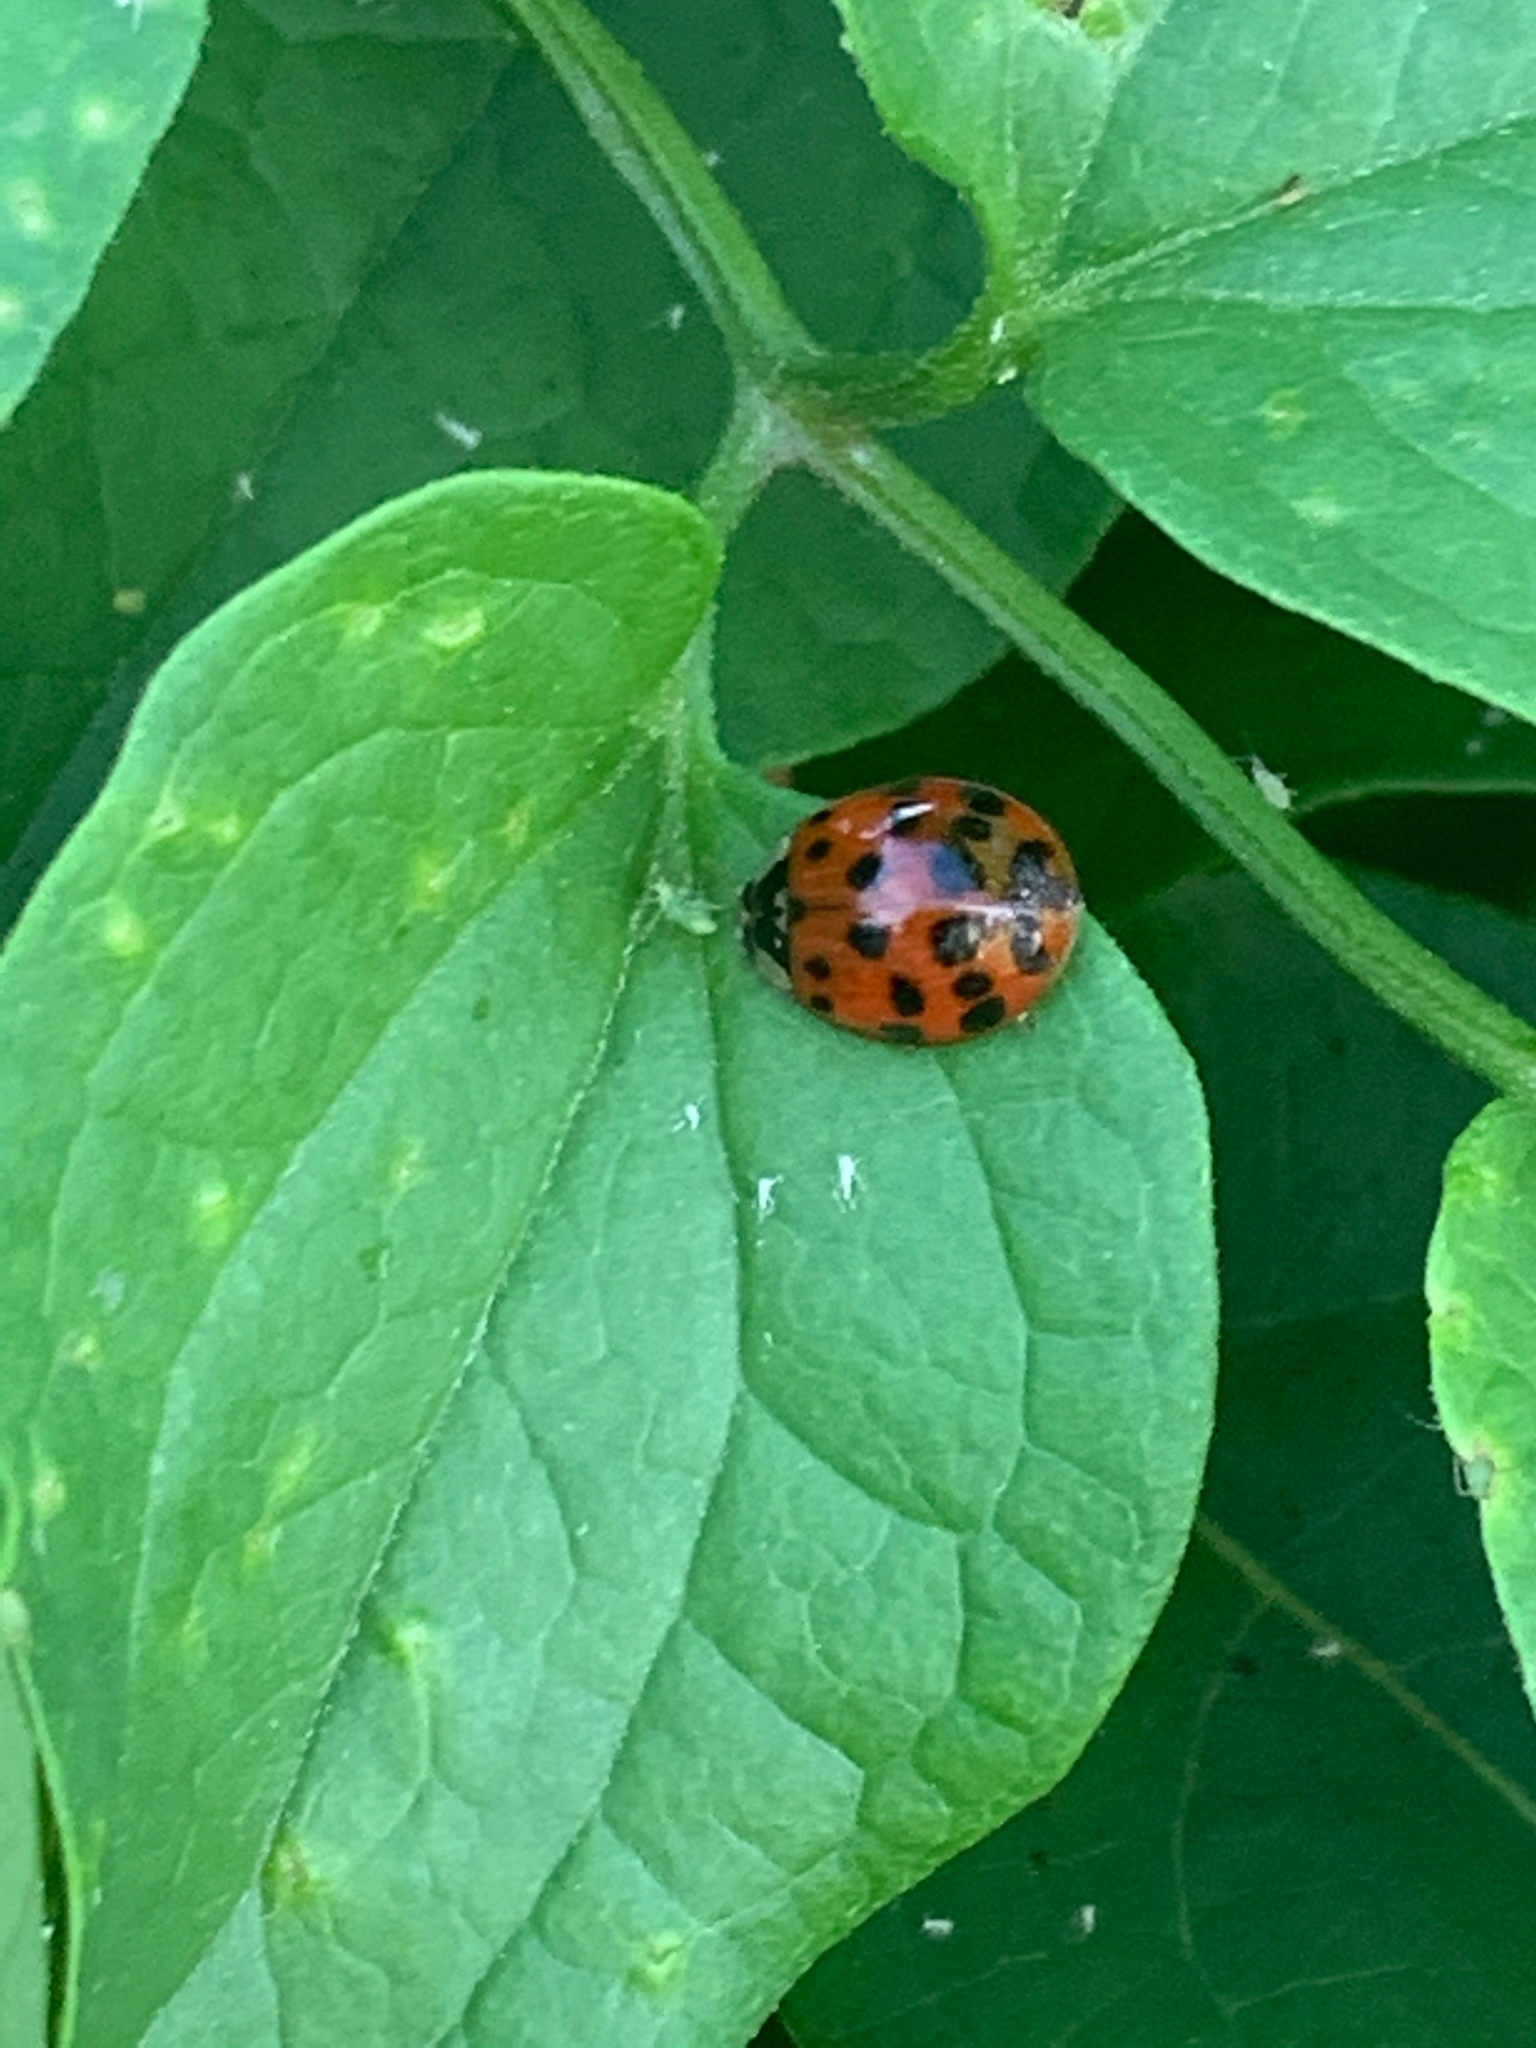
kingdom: Animalia
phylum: Arthropoda
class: Insecta
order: Coleoptera
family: Coccinellidae
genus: Harmonia
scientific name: Harmonia axyridis
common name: Harlequin ladybird
